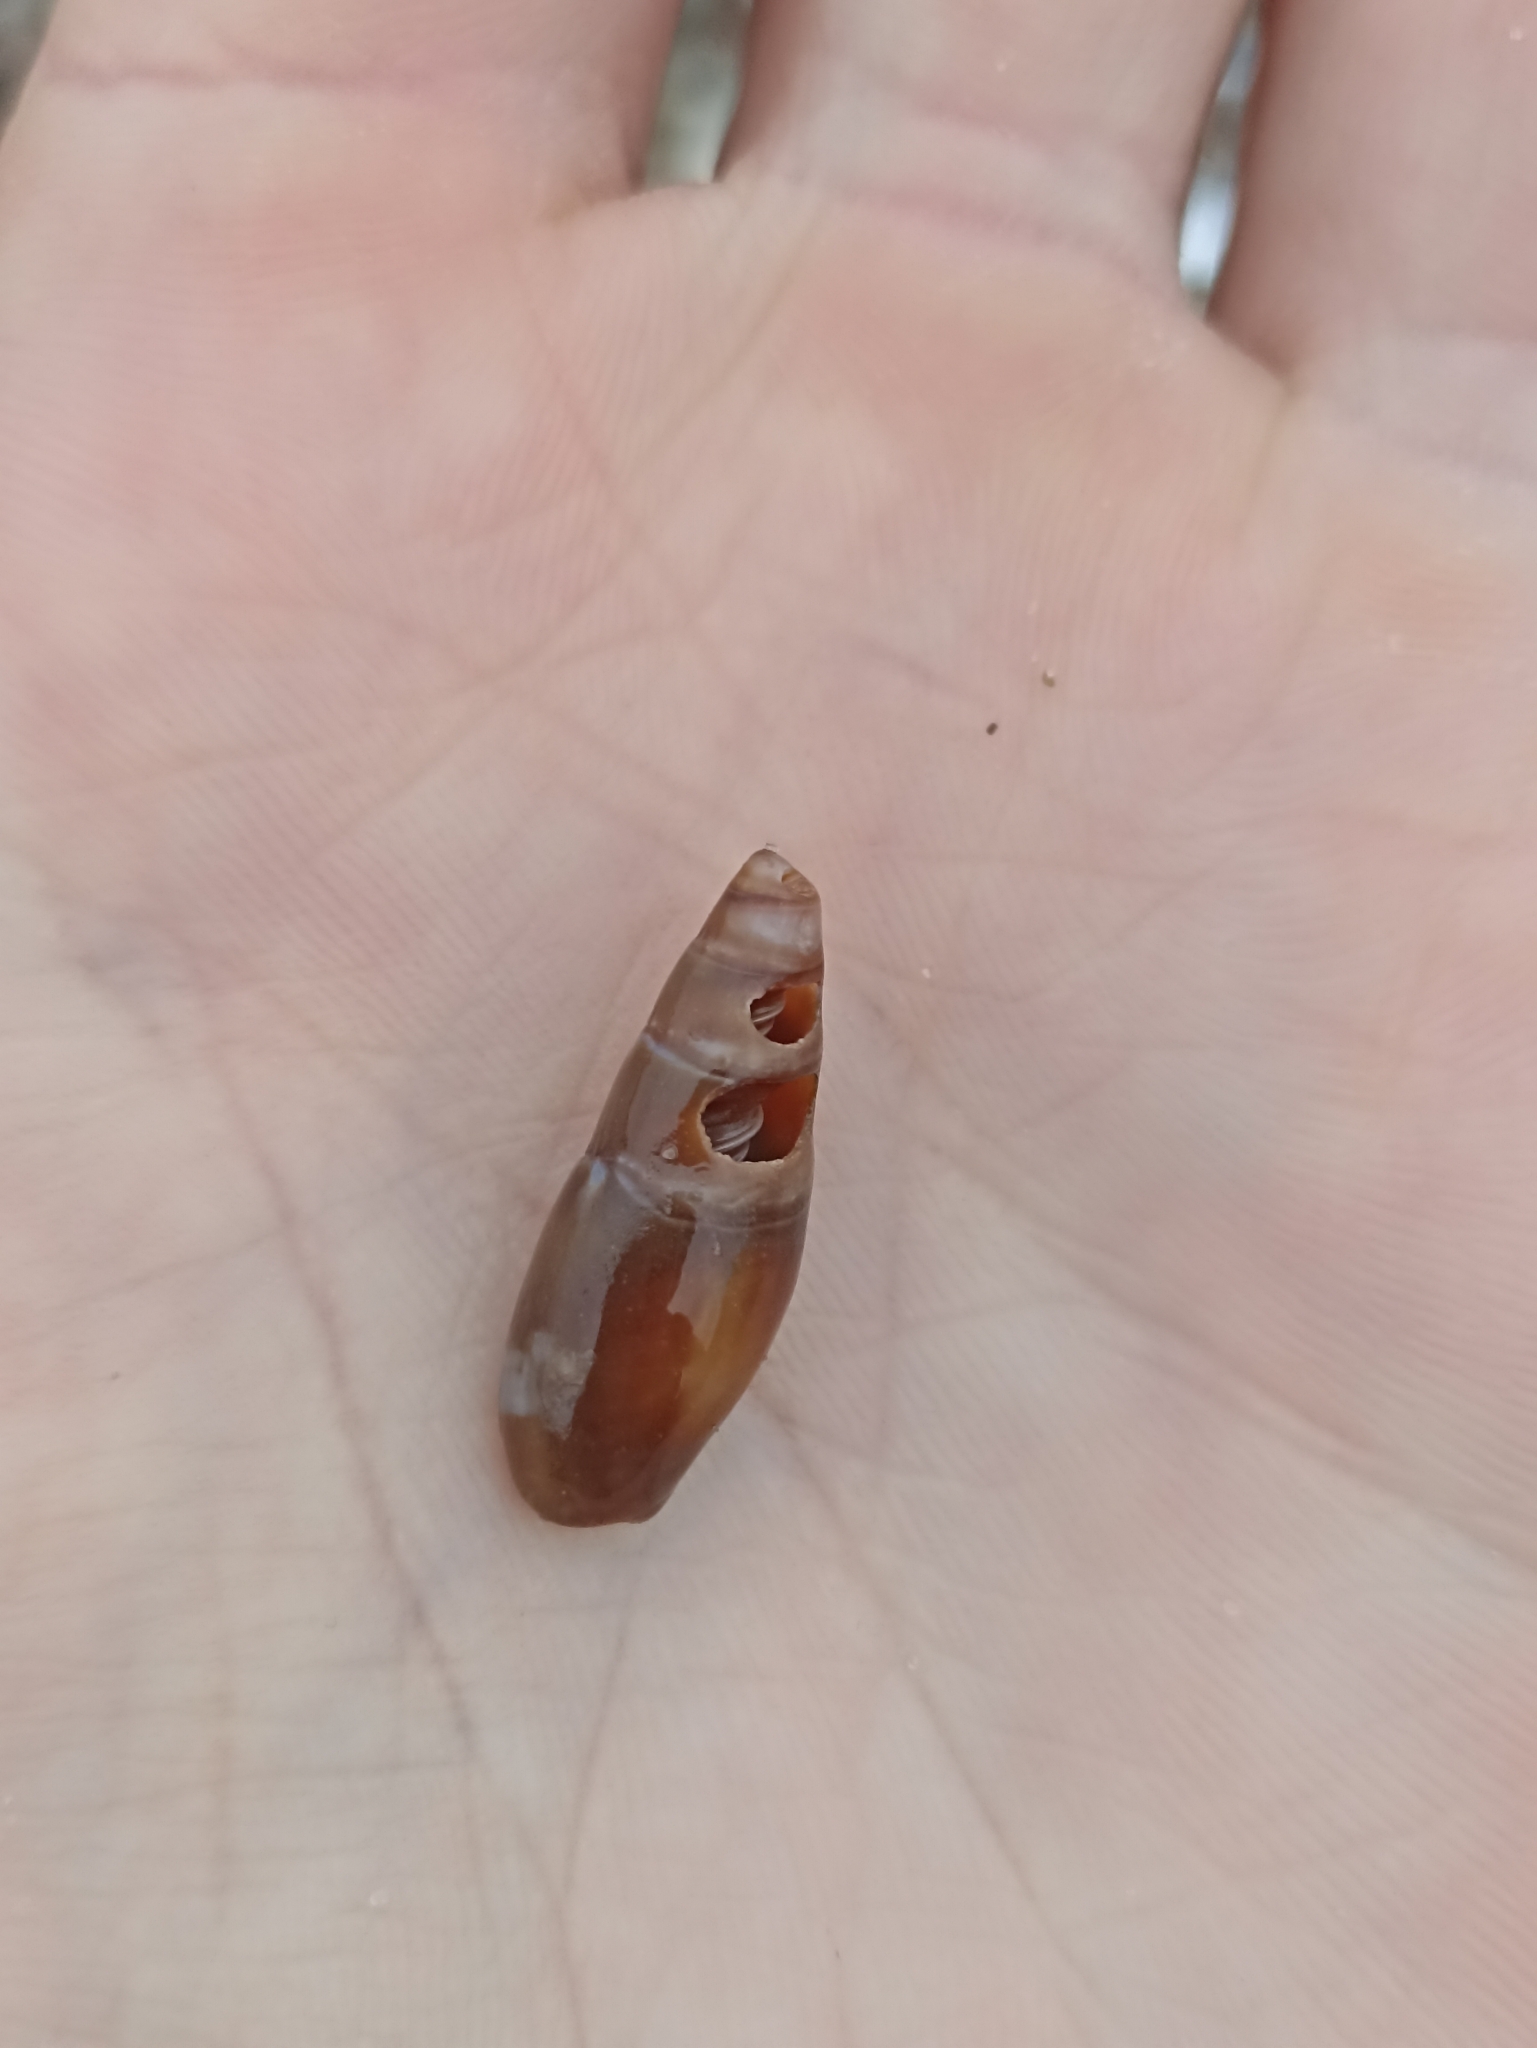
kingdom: Animalia
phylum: Mollusca
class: Gastropoda
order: Neogastropoda
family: Mitridae
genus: Isara
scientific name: Isara cookii
